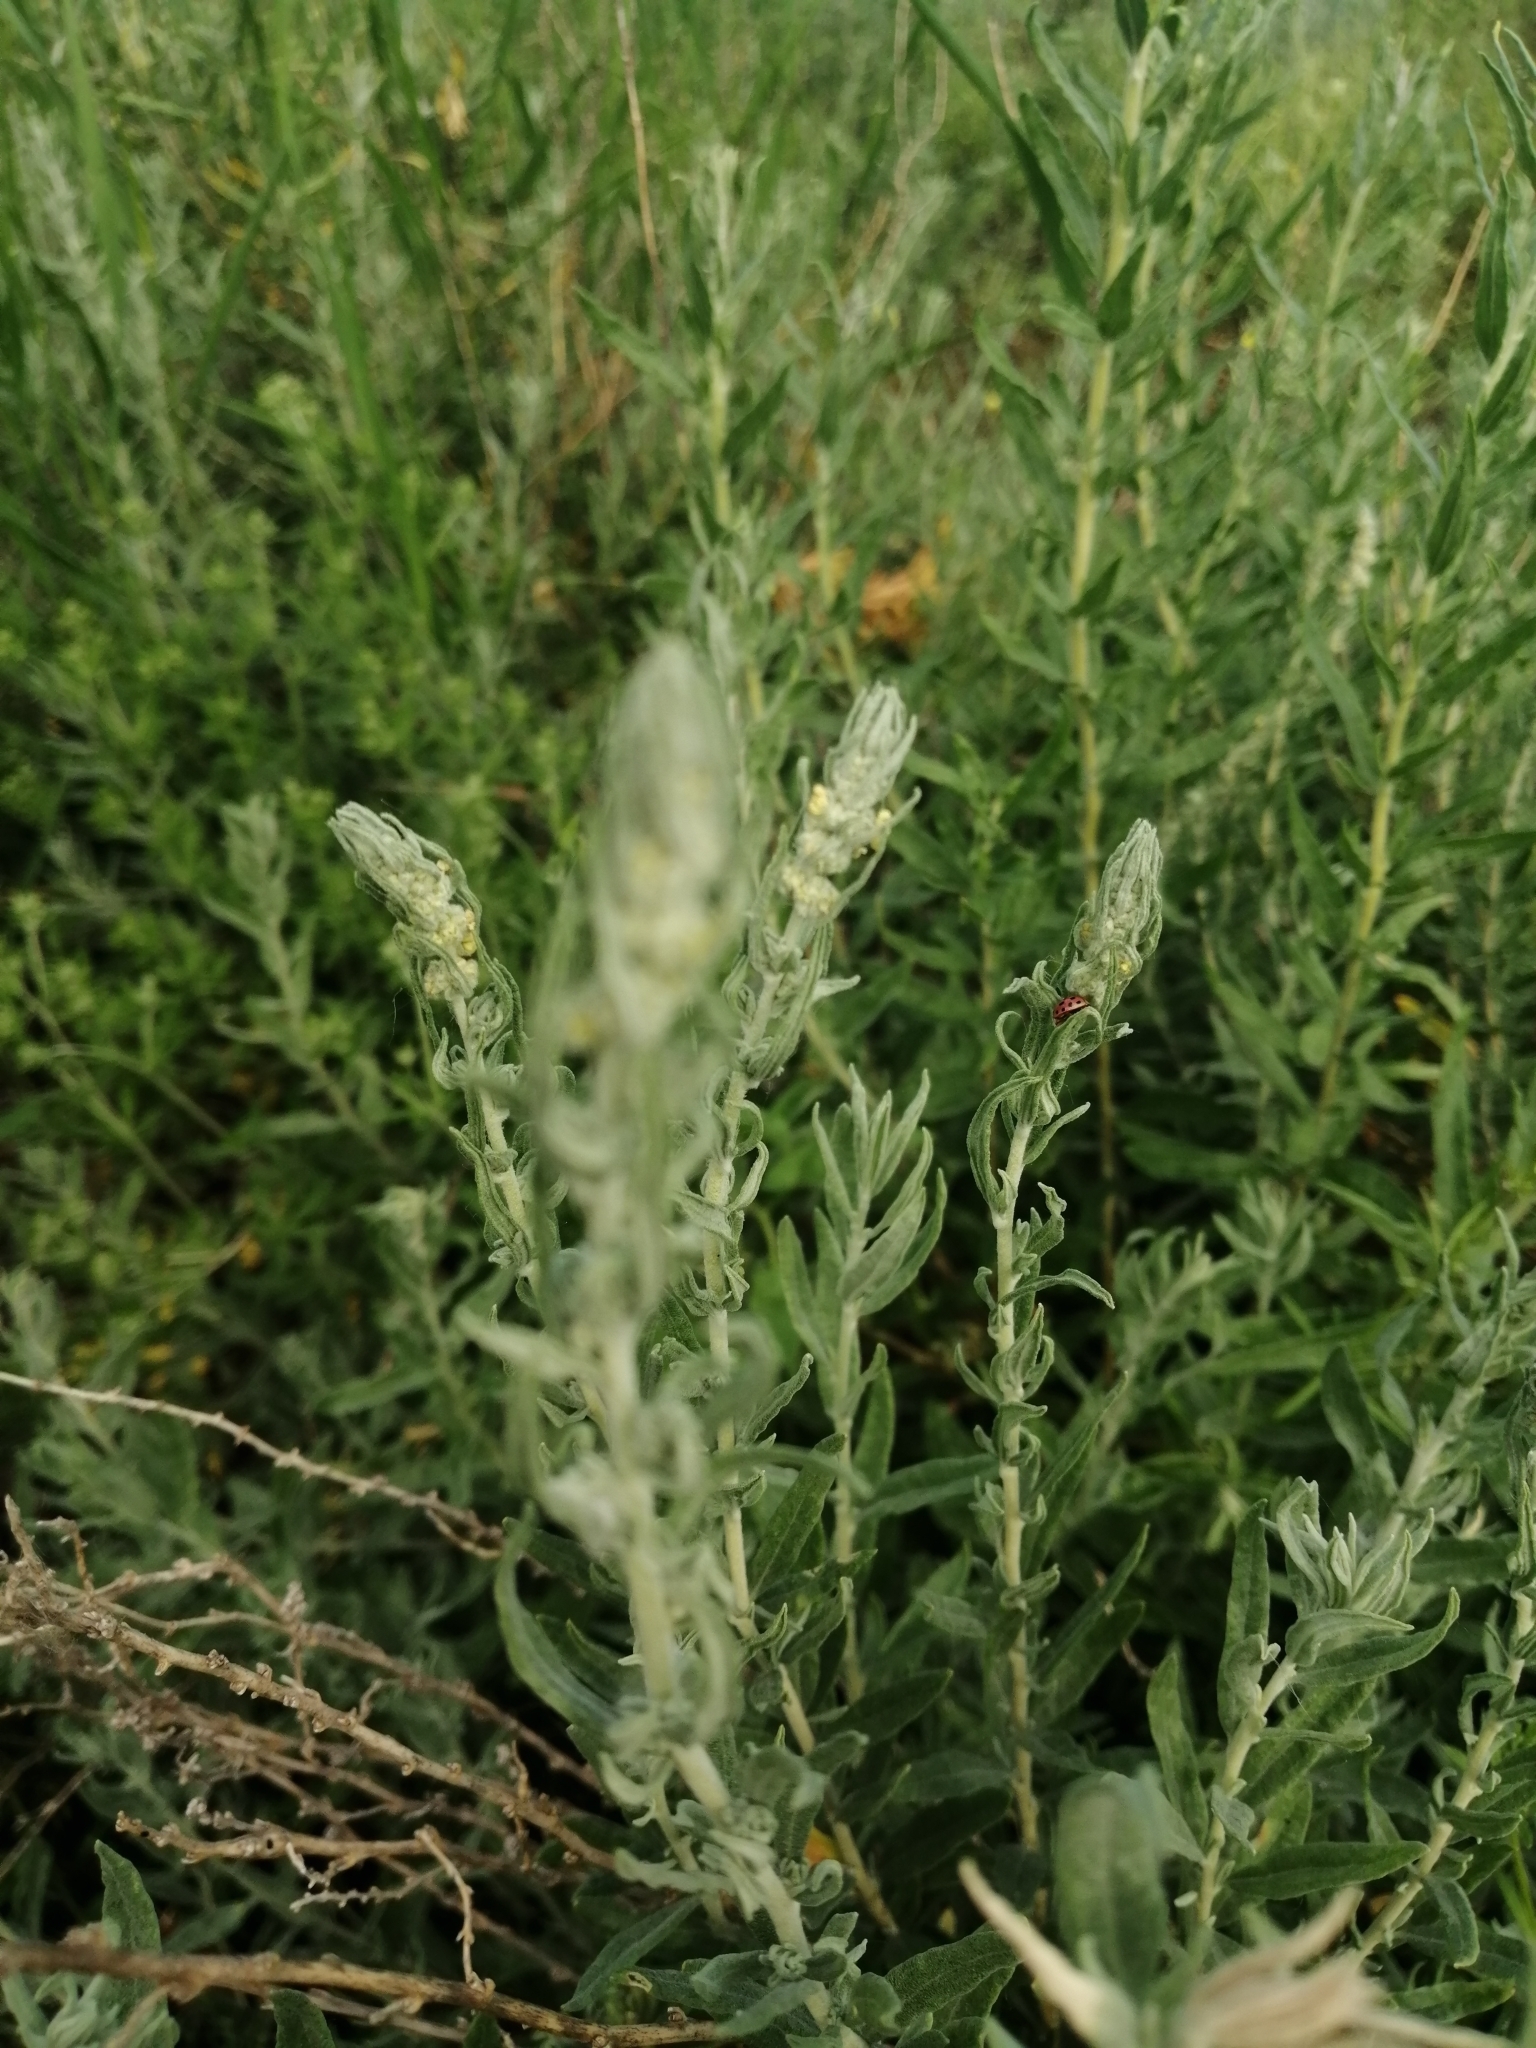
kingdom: Plantae
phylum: Tracheophyta
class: Magnoliopsida
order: Caryophyllales
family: Amaranthaceae
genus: Krascheninnikovia
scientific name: Krascheninnikovia ceratoides
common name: Pamirian winterfat
